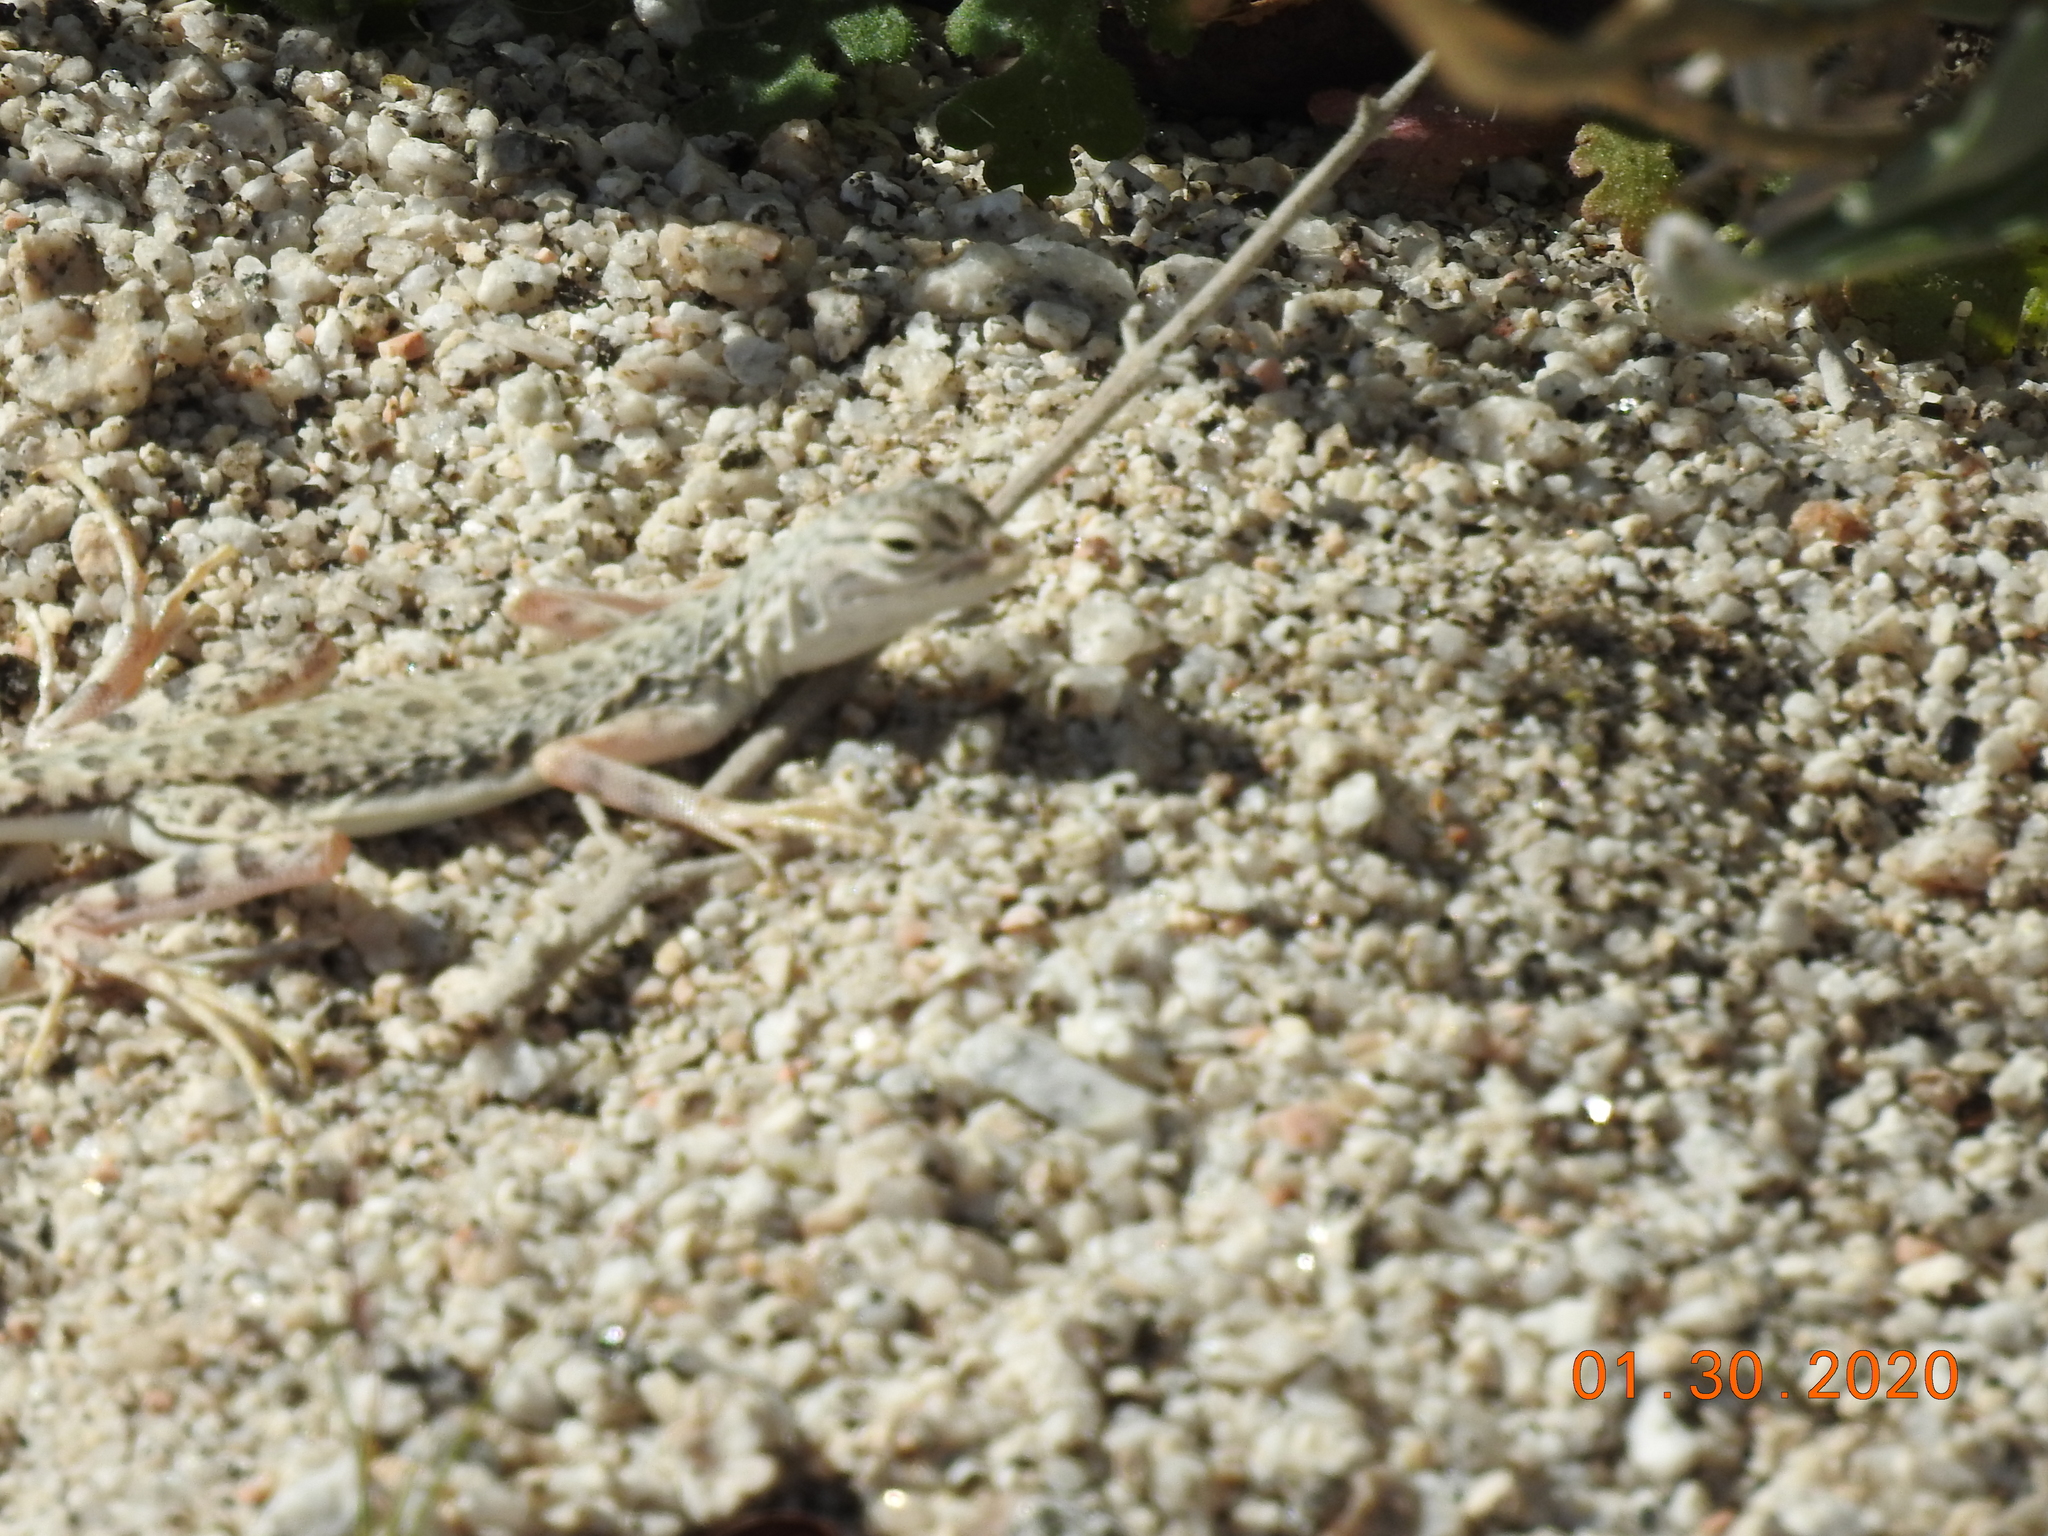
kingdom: Animalia
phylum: Chordata
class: Squamata
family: Phrynosomatidae
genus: Callisaurus
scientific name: Callisaurus draconoides
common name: Zebra-tailed lizard
